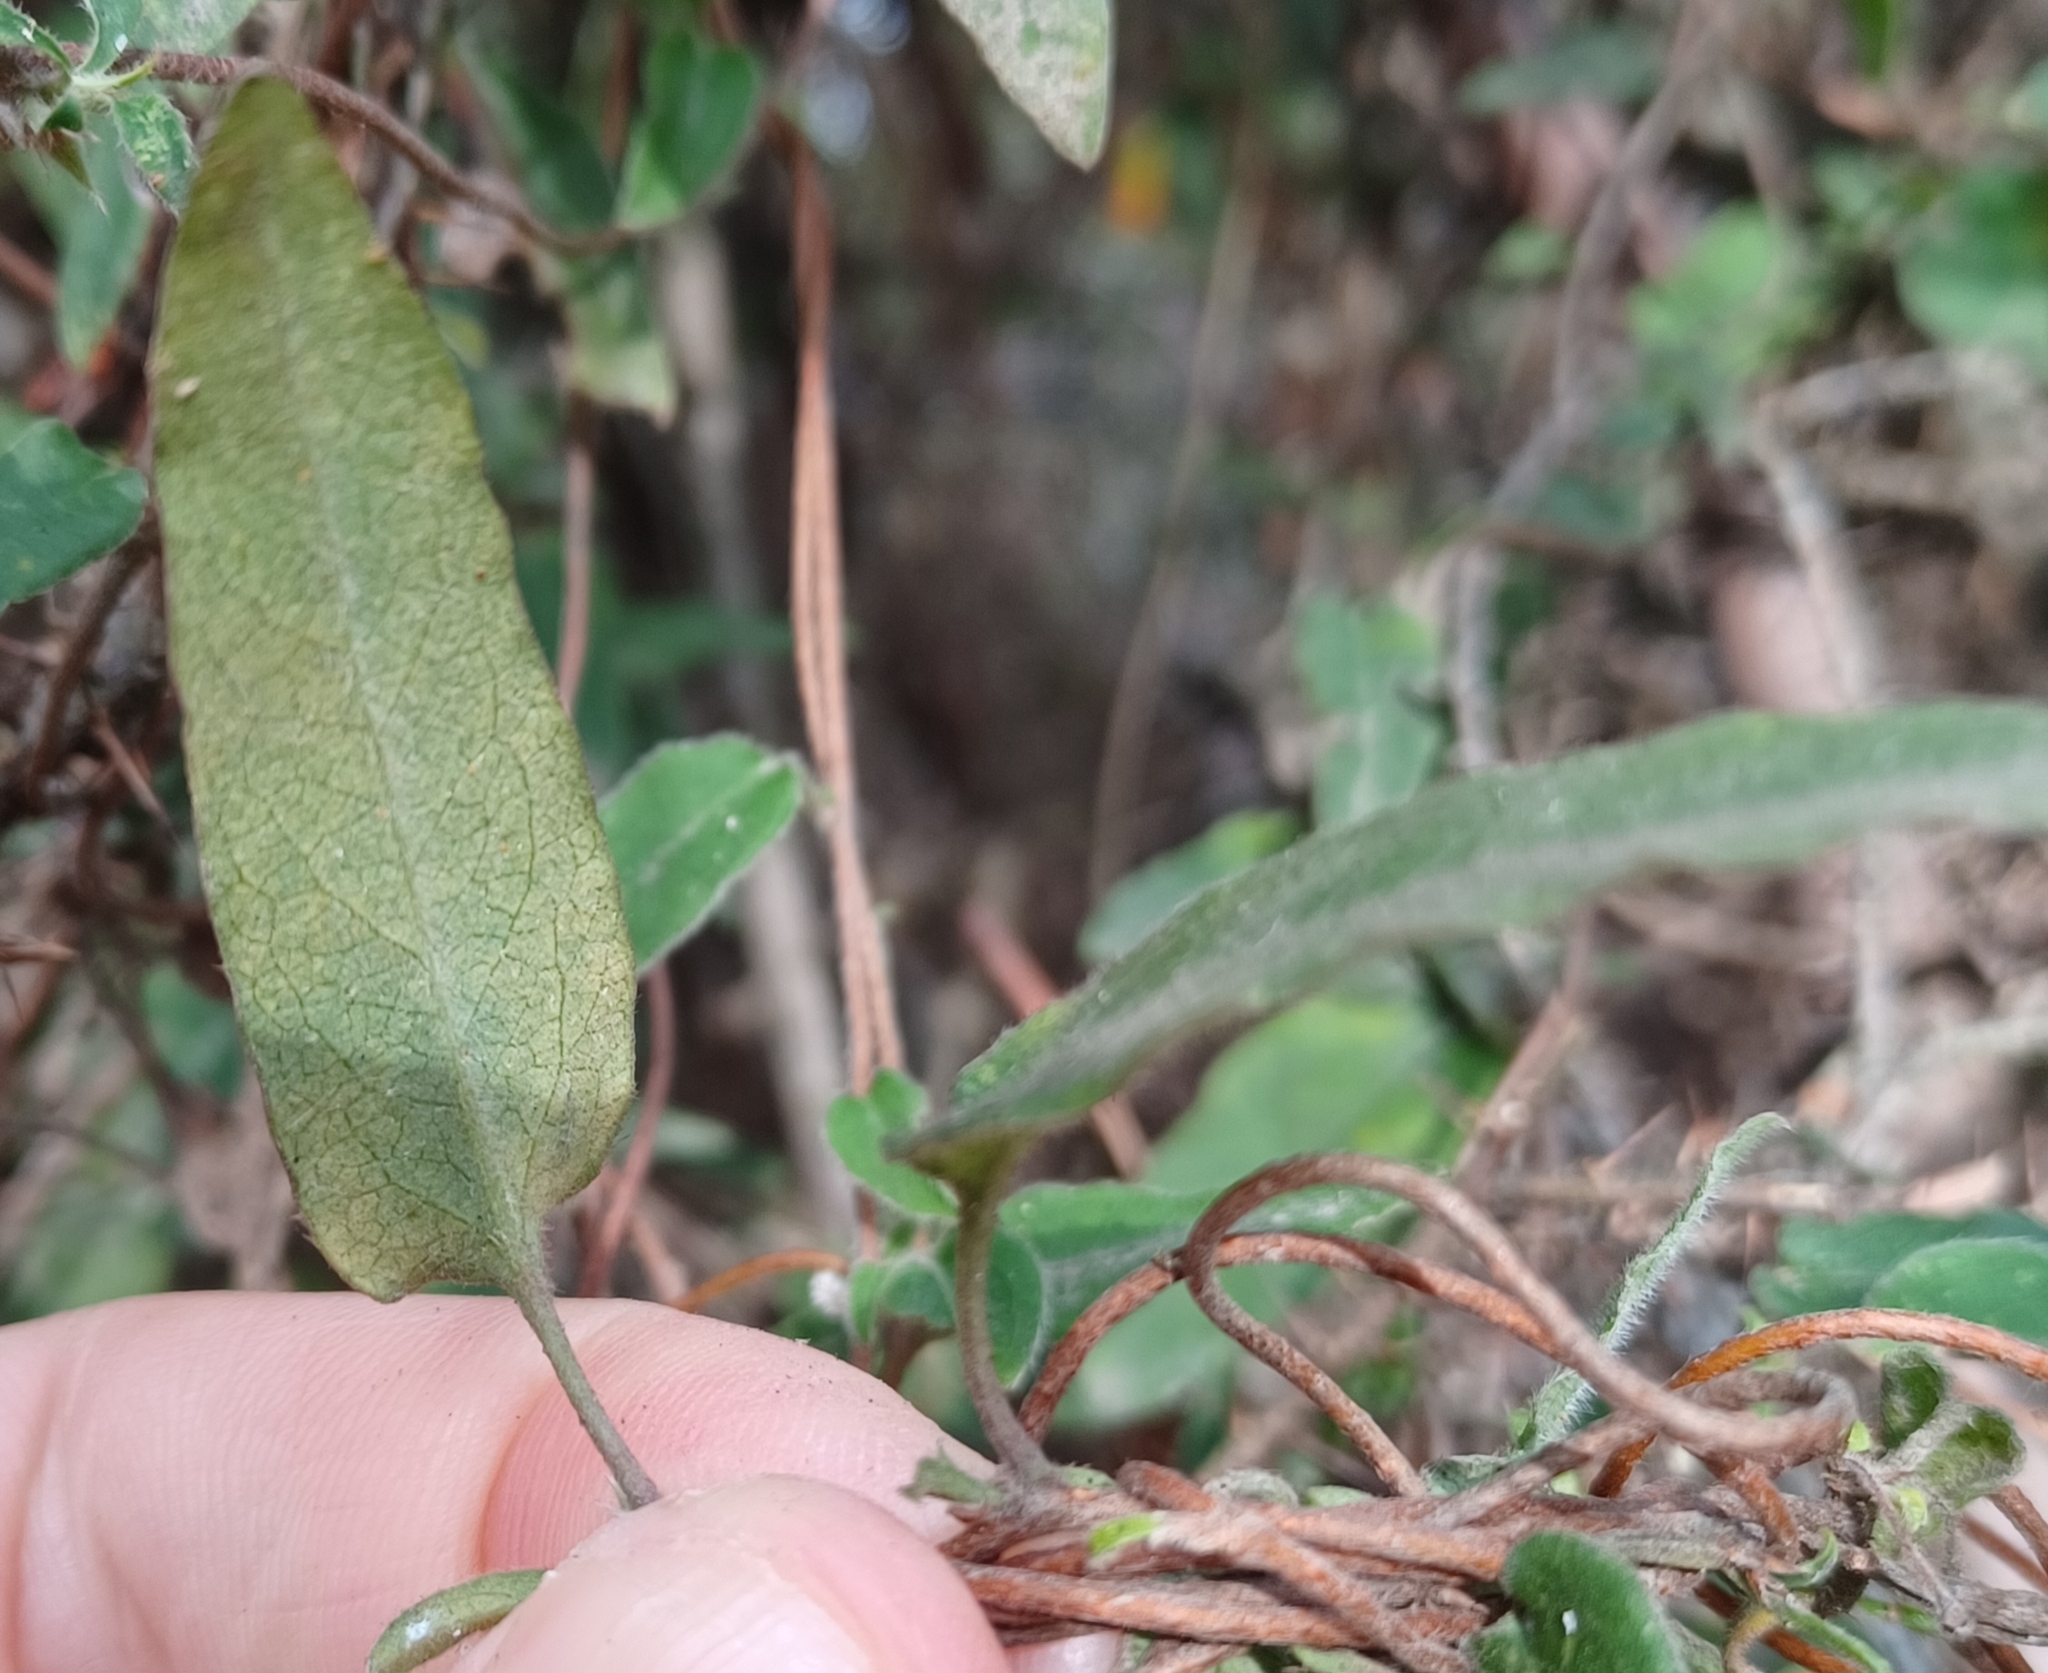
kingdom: Plantae
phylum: Tracheophyta
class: Magnoliopsida
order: Apiales
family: Pittosporaceae
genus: Marianthus
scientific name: Marianthus bignoniaceus
